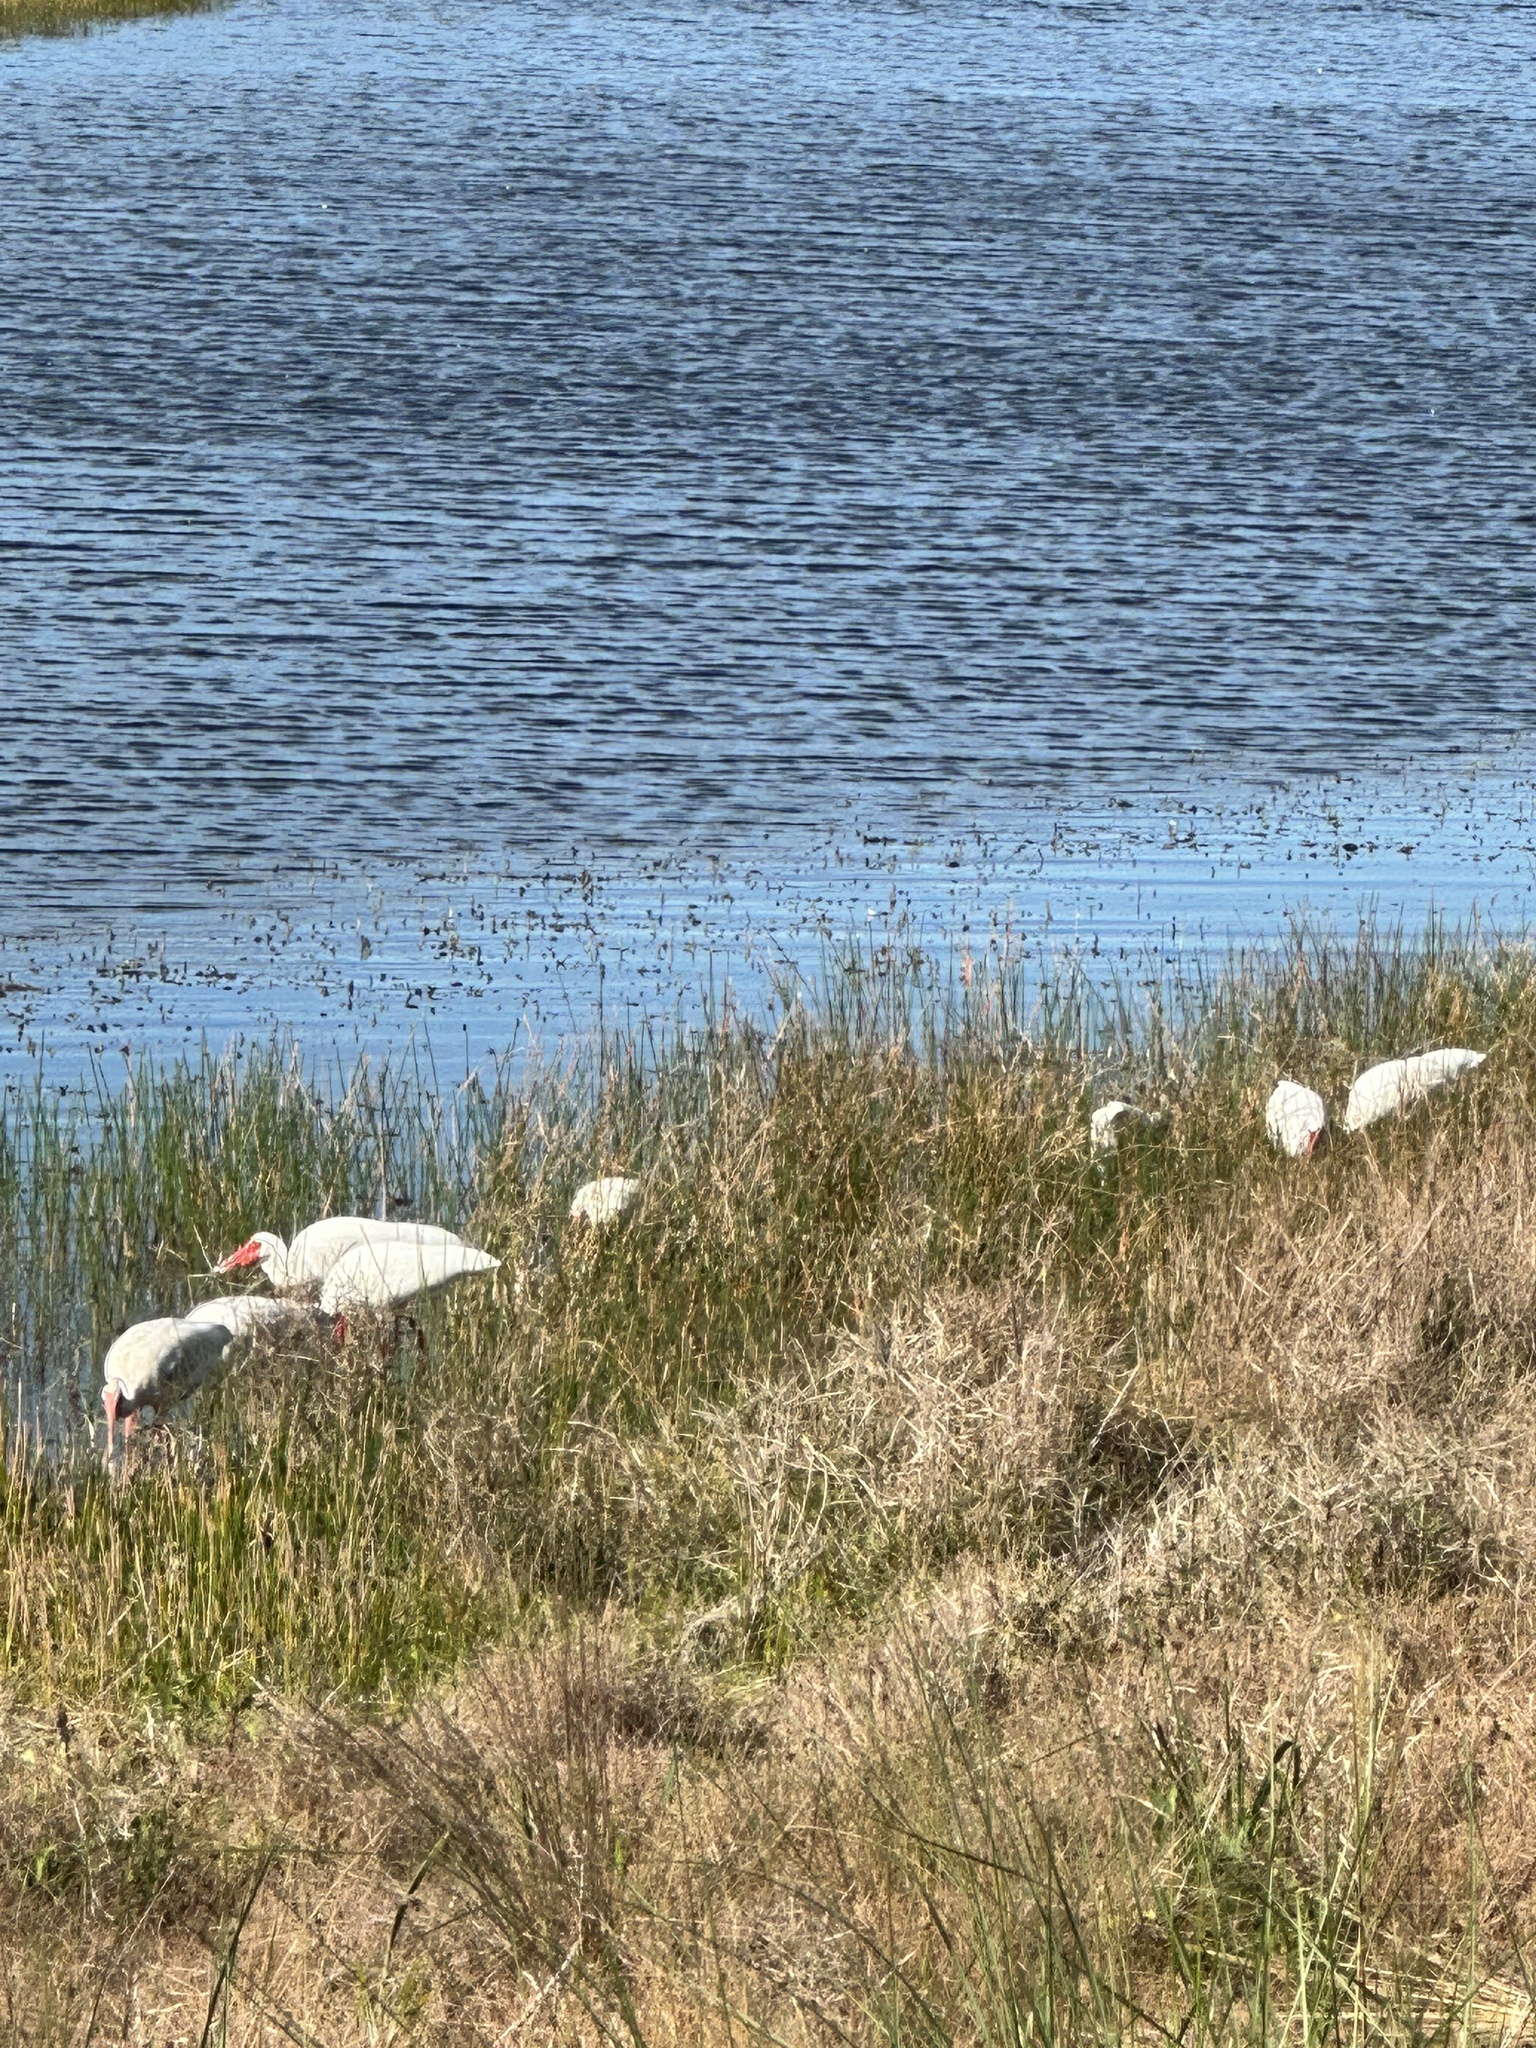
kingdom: Animalia
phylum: Chordata
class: Aves
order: Pelecaniformes
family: Threskiornithidae
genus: Eudocimus
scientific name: Eudocimus albus
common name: White ibis
